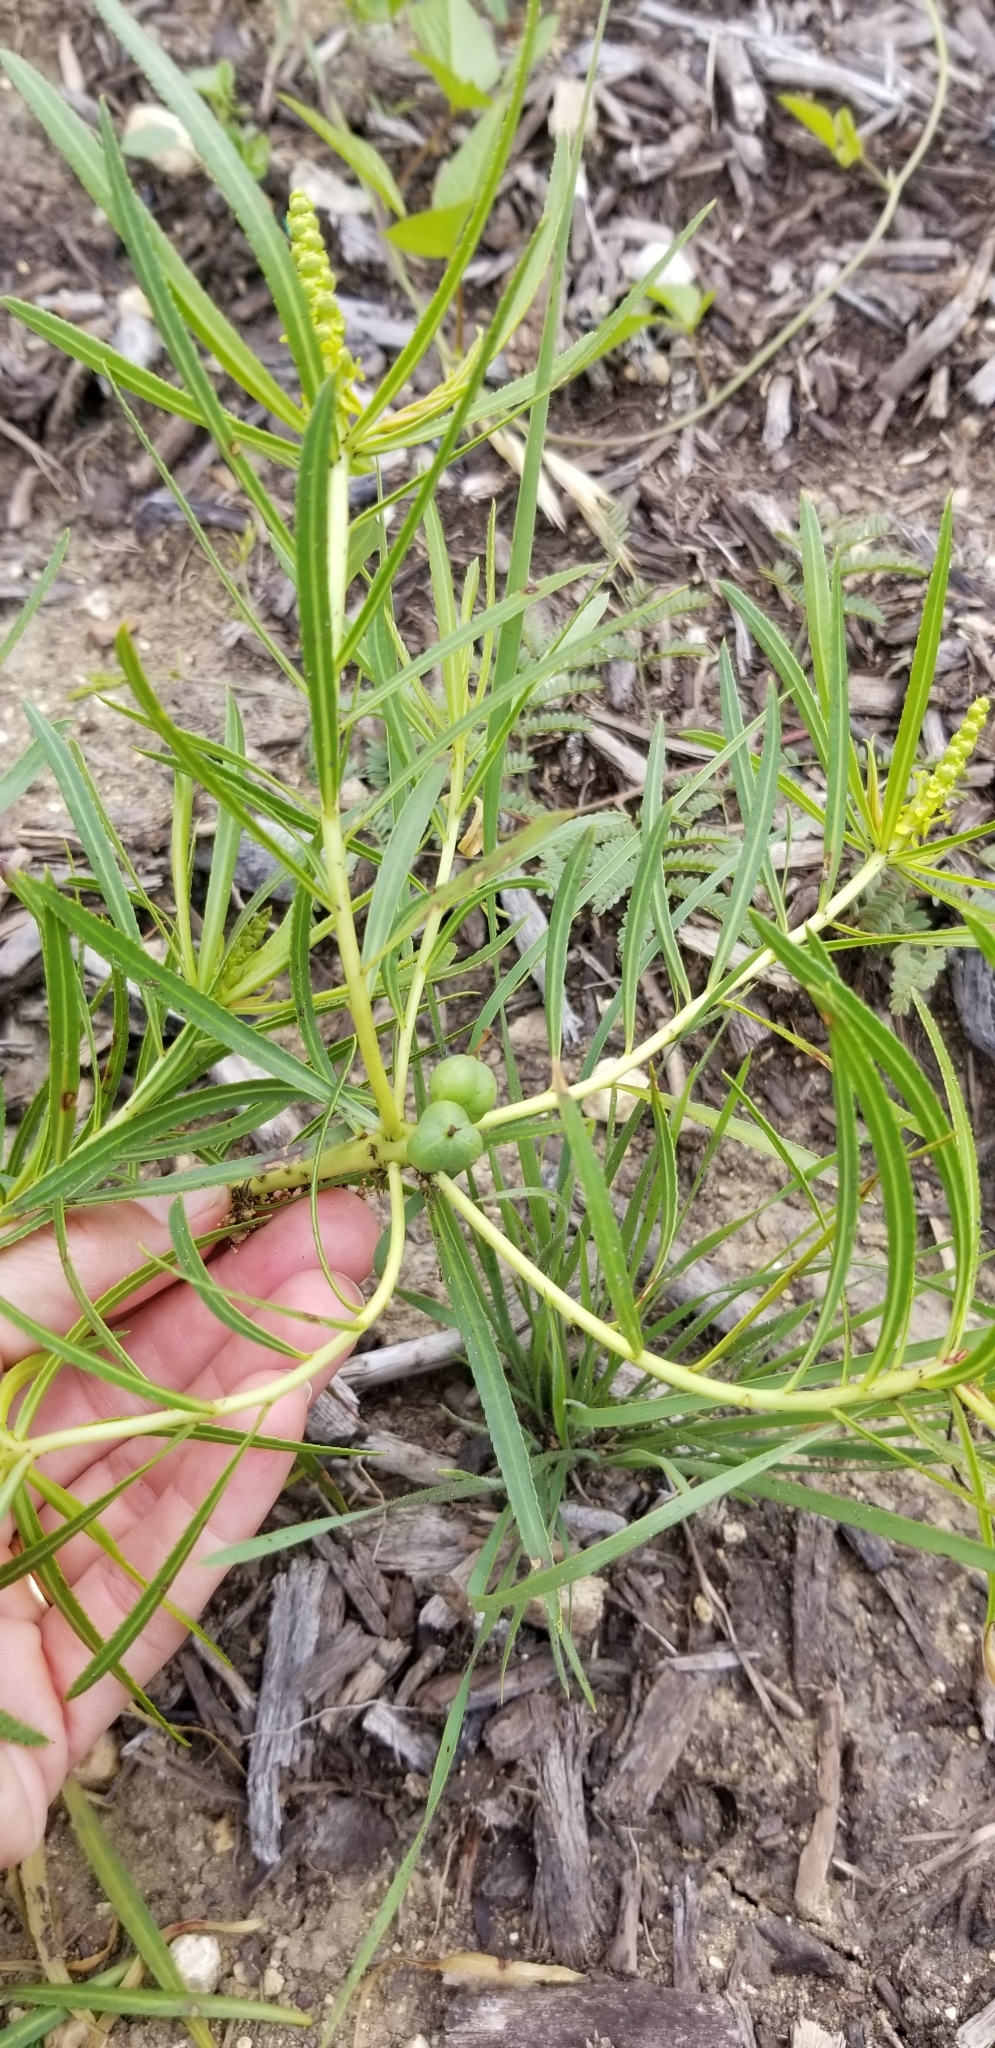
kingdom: Plantae
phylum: Tracheophyta
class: Magnoliopsida
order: Malpighiales
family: Euphorbiaceae
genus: Stillingia
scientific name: Stillingia texana
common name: Texas stillingia
